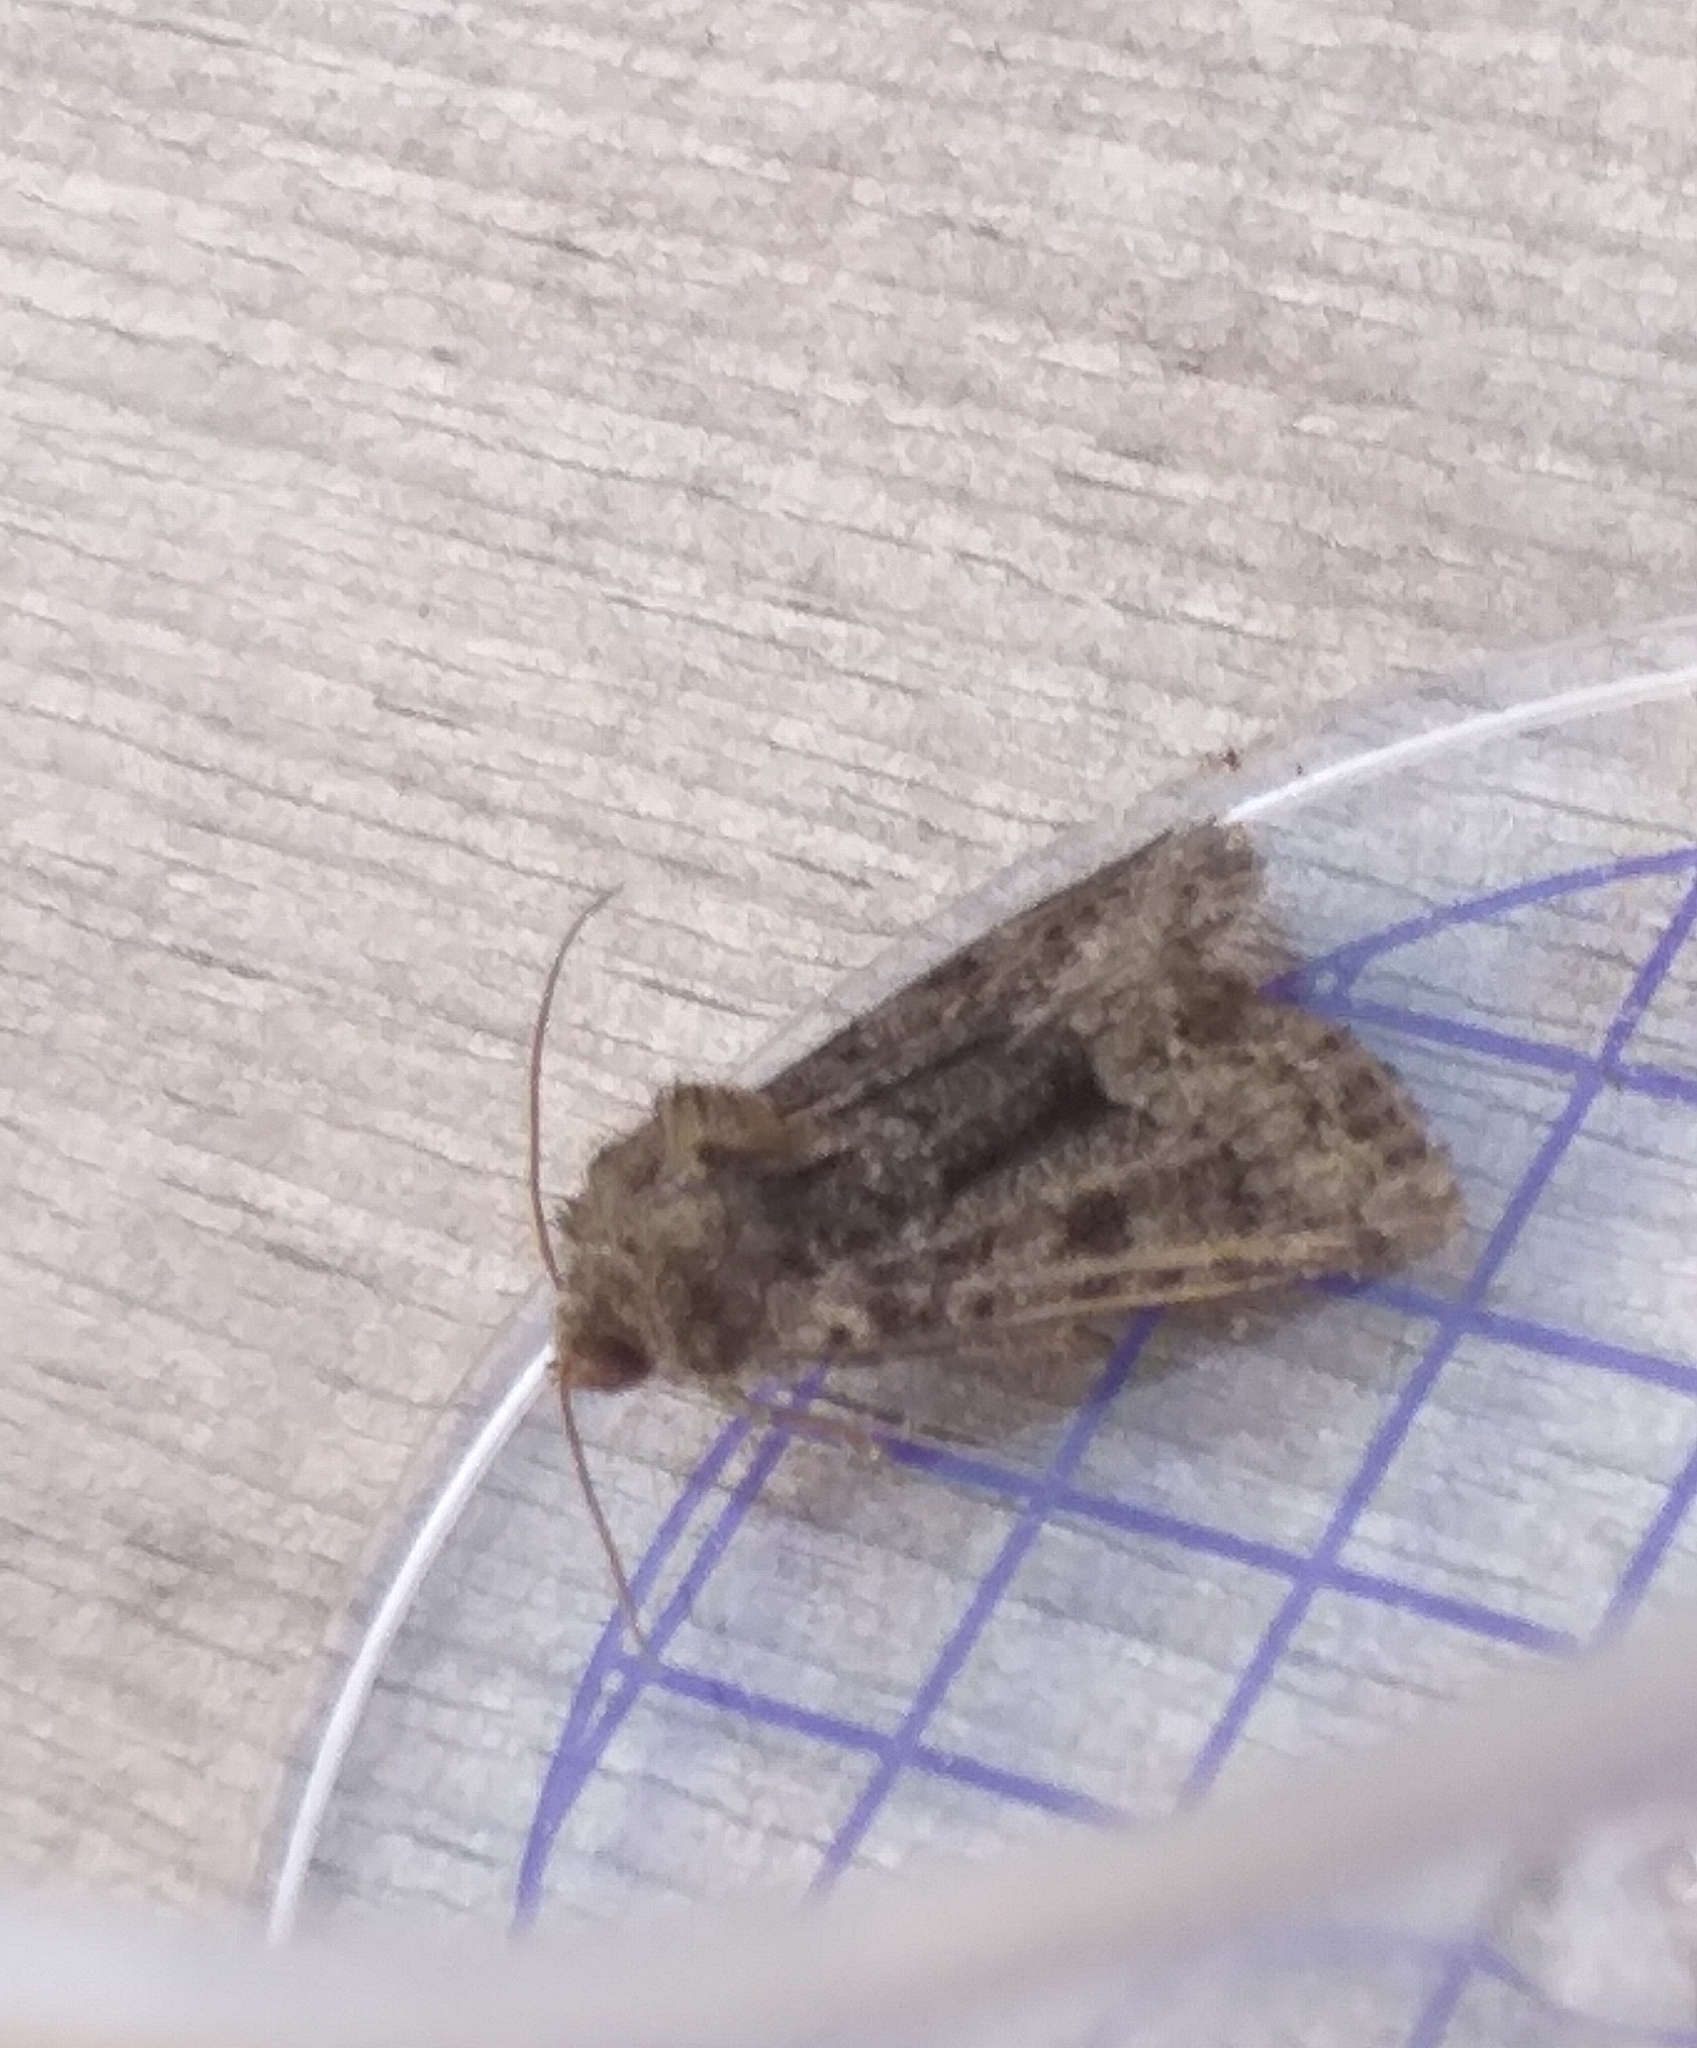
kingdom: Animalia
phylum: Arthropoda
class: Insecta
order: Lepidoptera
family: Noctuidae
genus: Oligia
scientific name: Oligia latruncula
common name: Tawny marbled minor
